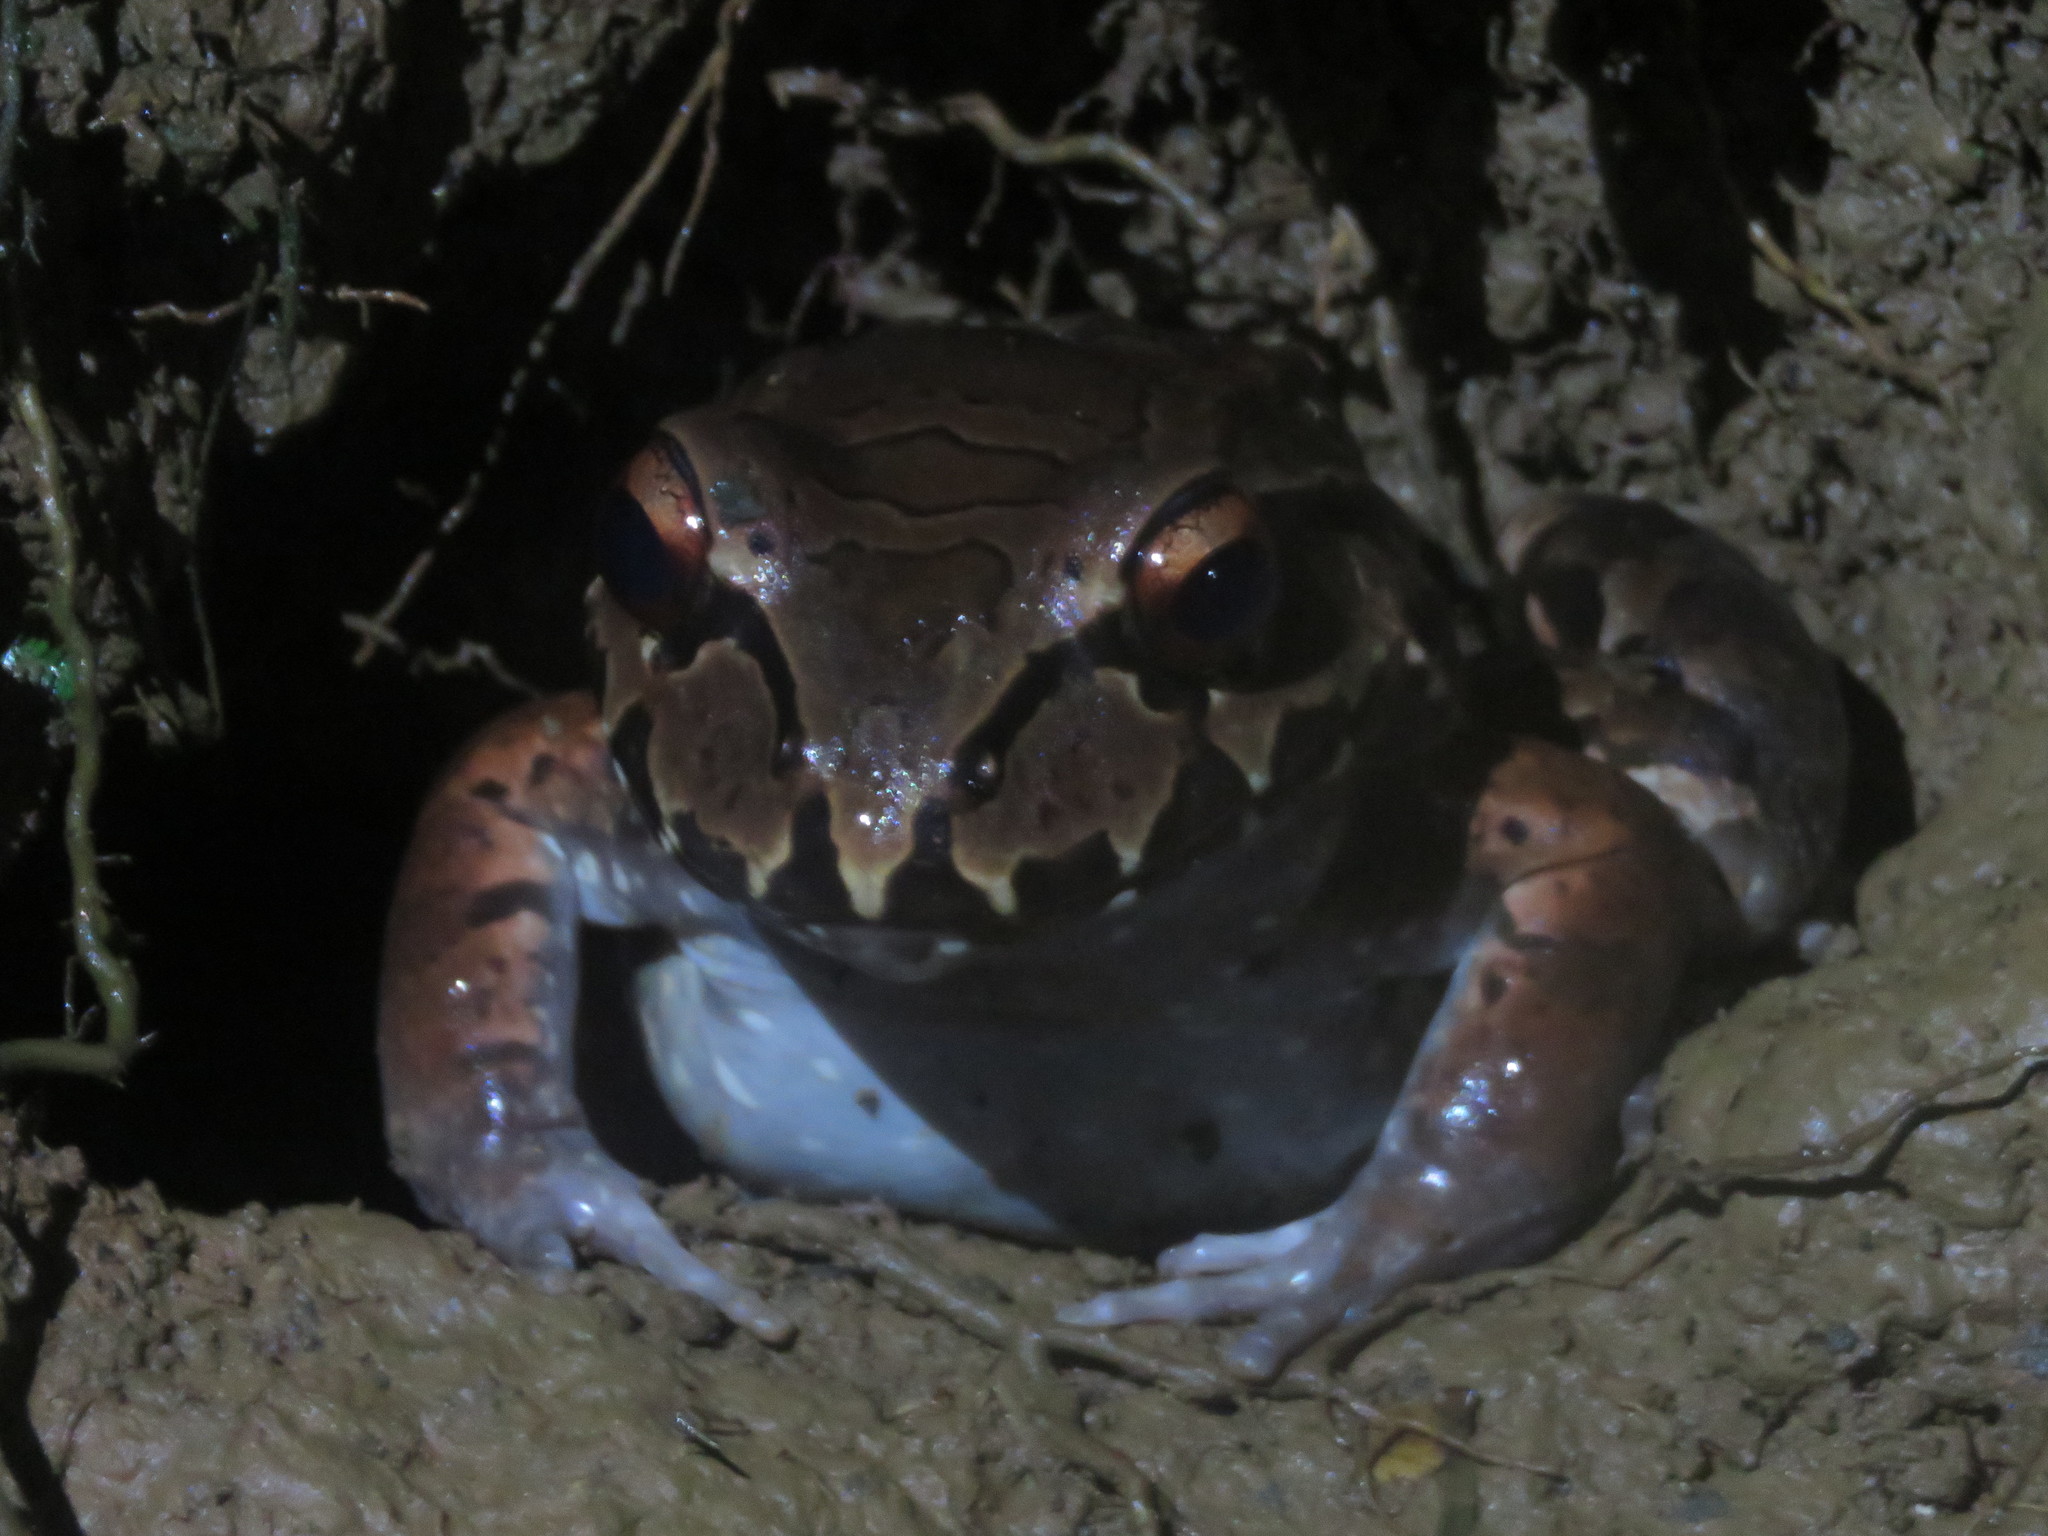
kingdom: Animalia
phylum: Chordata
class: Amphibia
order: Anura
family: Leptodactylidae
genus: Leptodactylus
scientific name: Leptodactylus savagei
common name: Savage's thin-toed frog
